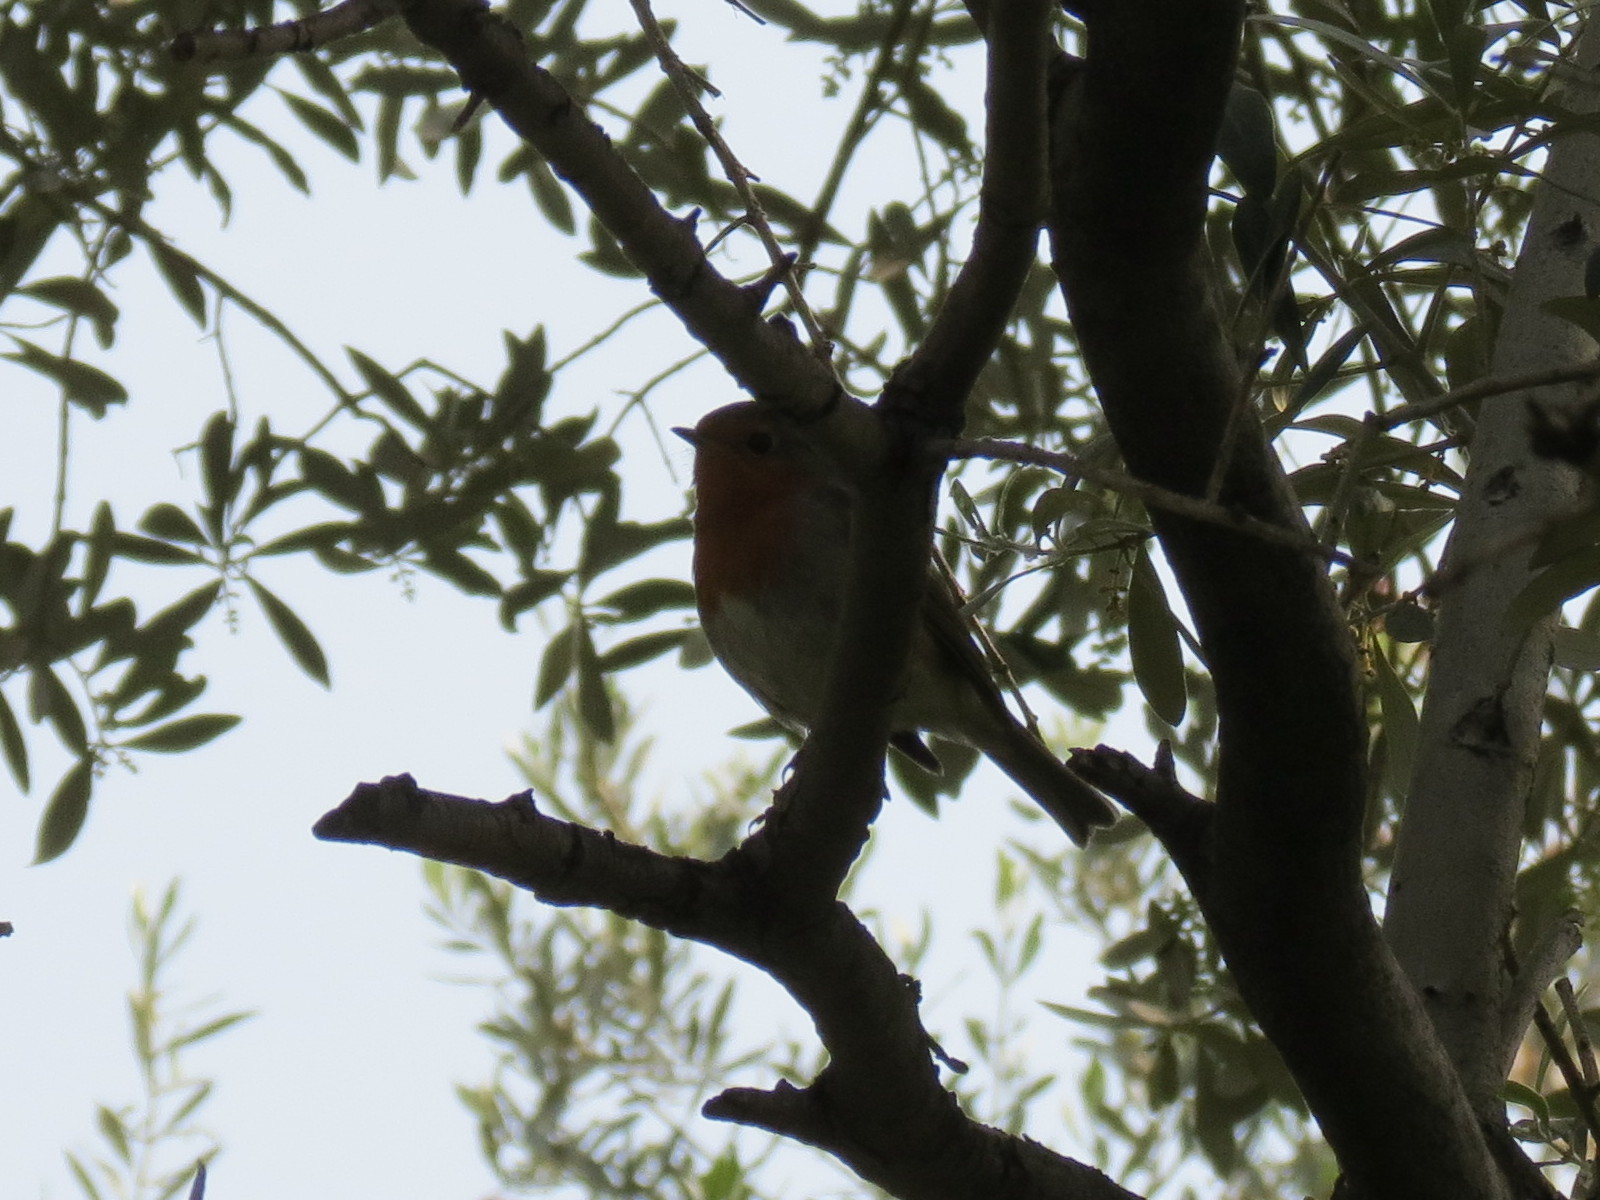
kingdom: Animalia
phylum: Chordata
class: Aves
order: Passeriformes
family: Muscicapidae
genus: Erithacus
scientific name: Erithacus rubecula
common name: European robin
